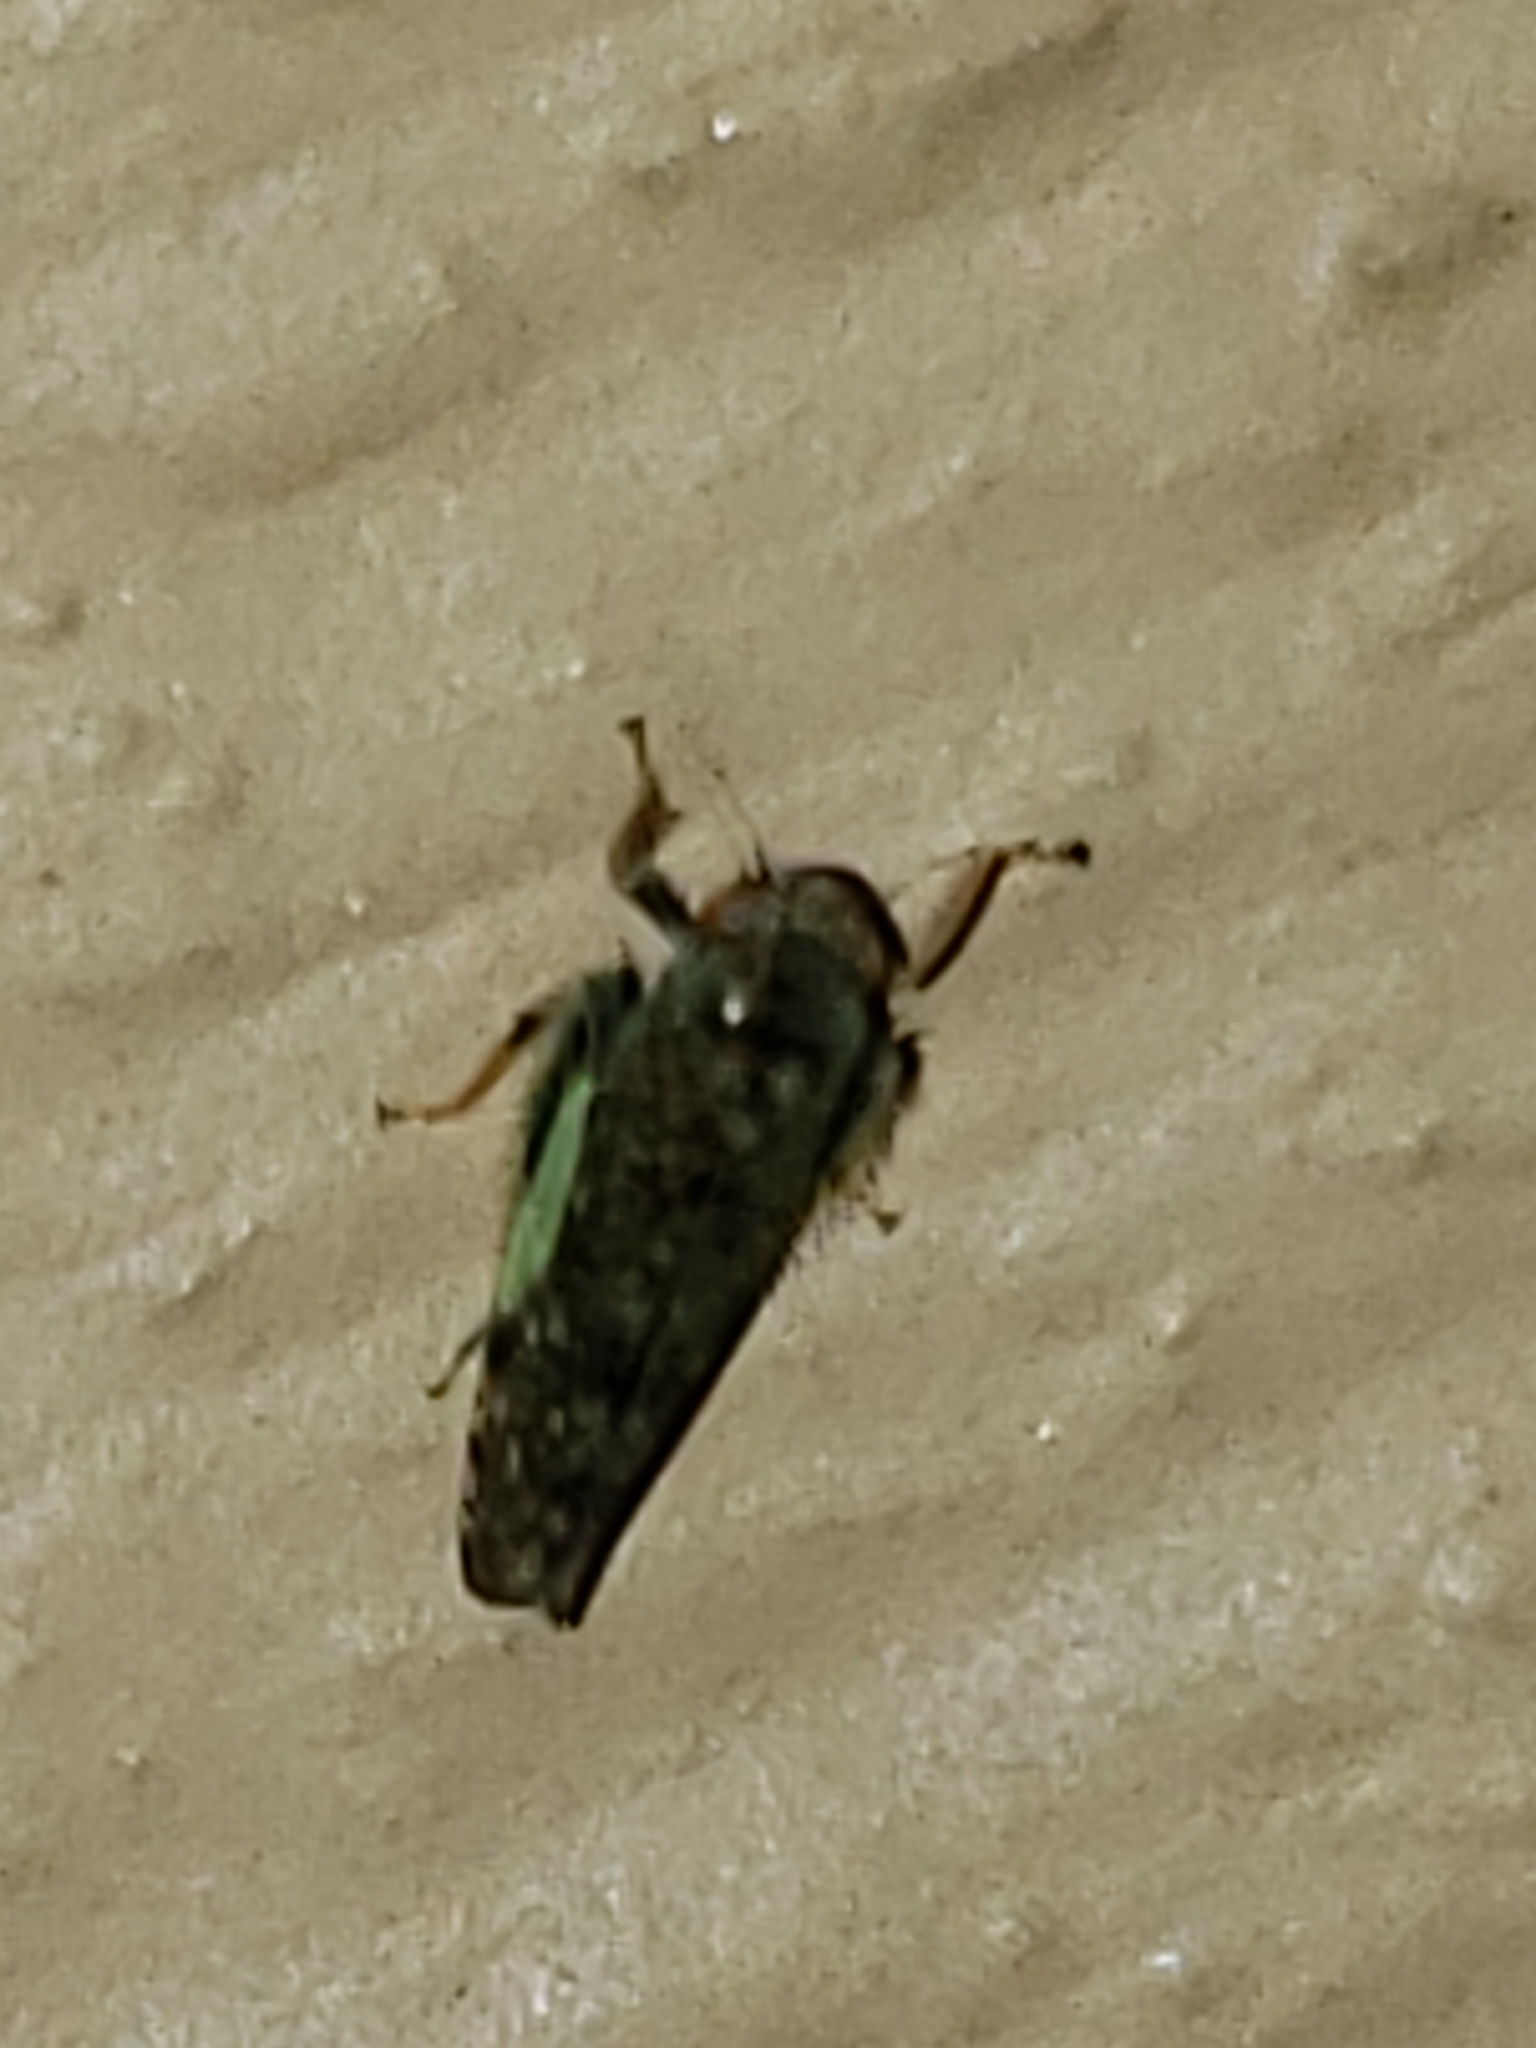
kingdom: Animalia
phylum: Arthropoda
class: Insecta
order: Hemiptera
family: Cicadellidae
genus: Orientus
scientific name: Orientus ishidae
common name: Japanese leafhopper
